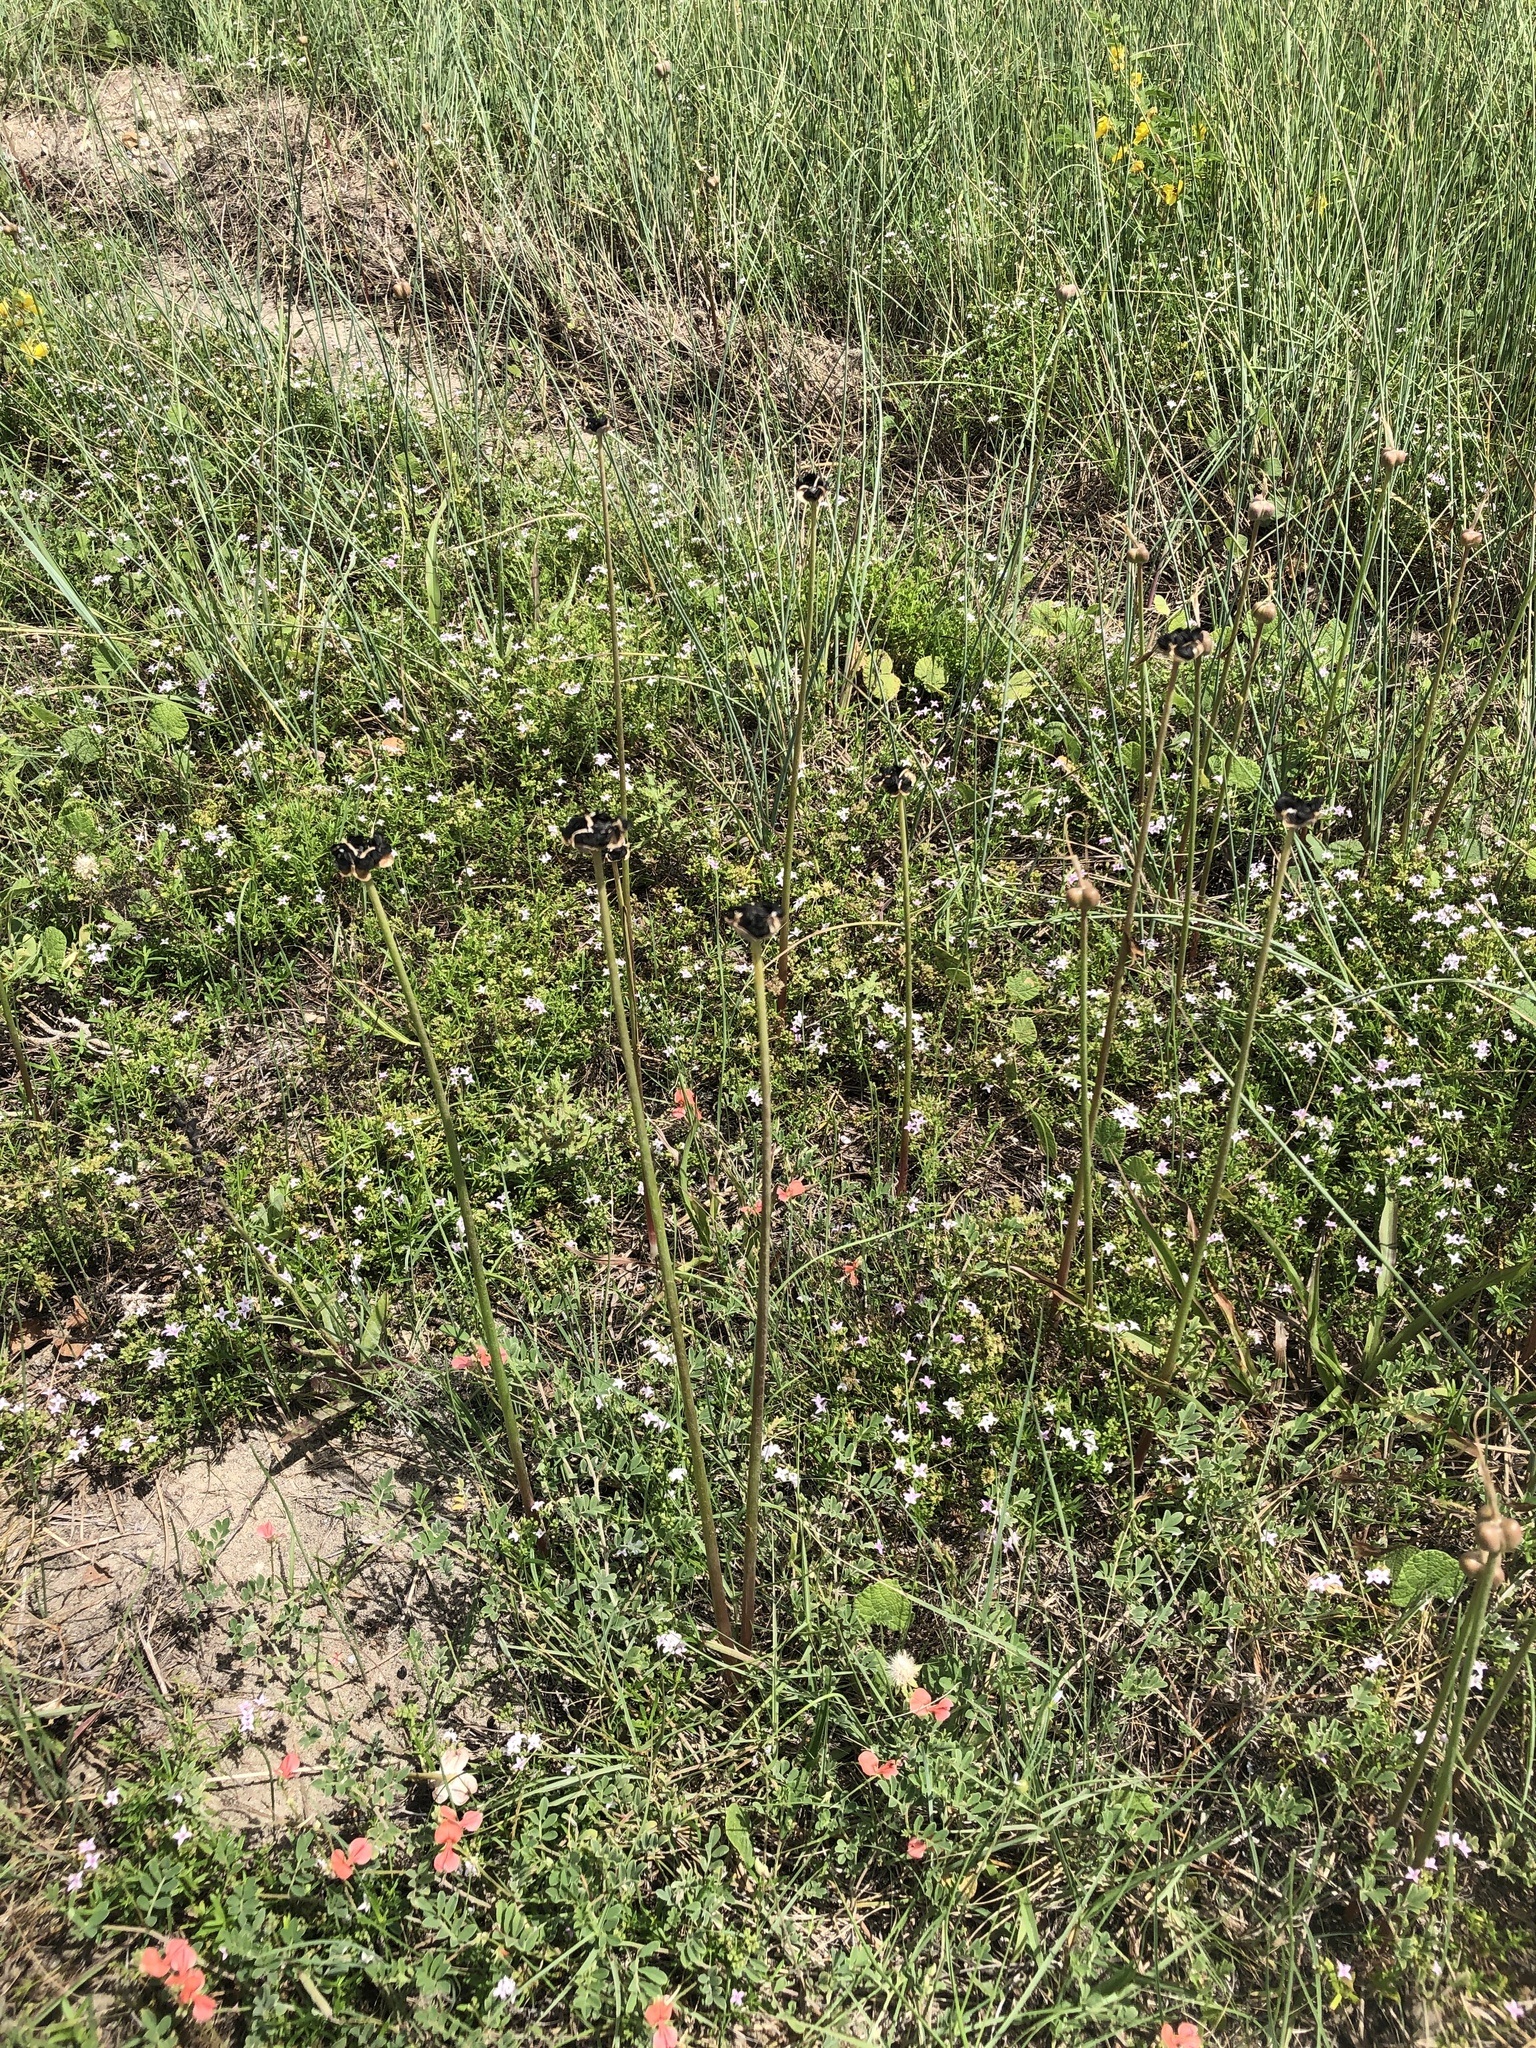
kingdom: Plantae
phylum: Tracheophyta
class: Liliopsida
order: Asparagales
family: Amaryllidaceae
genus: Zephyranthes
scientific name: Zephyranthes
